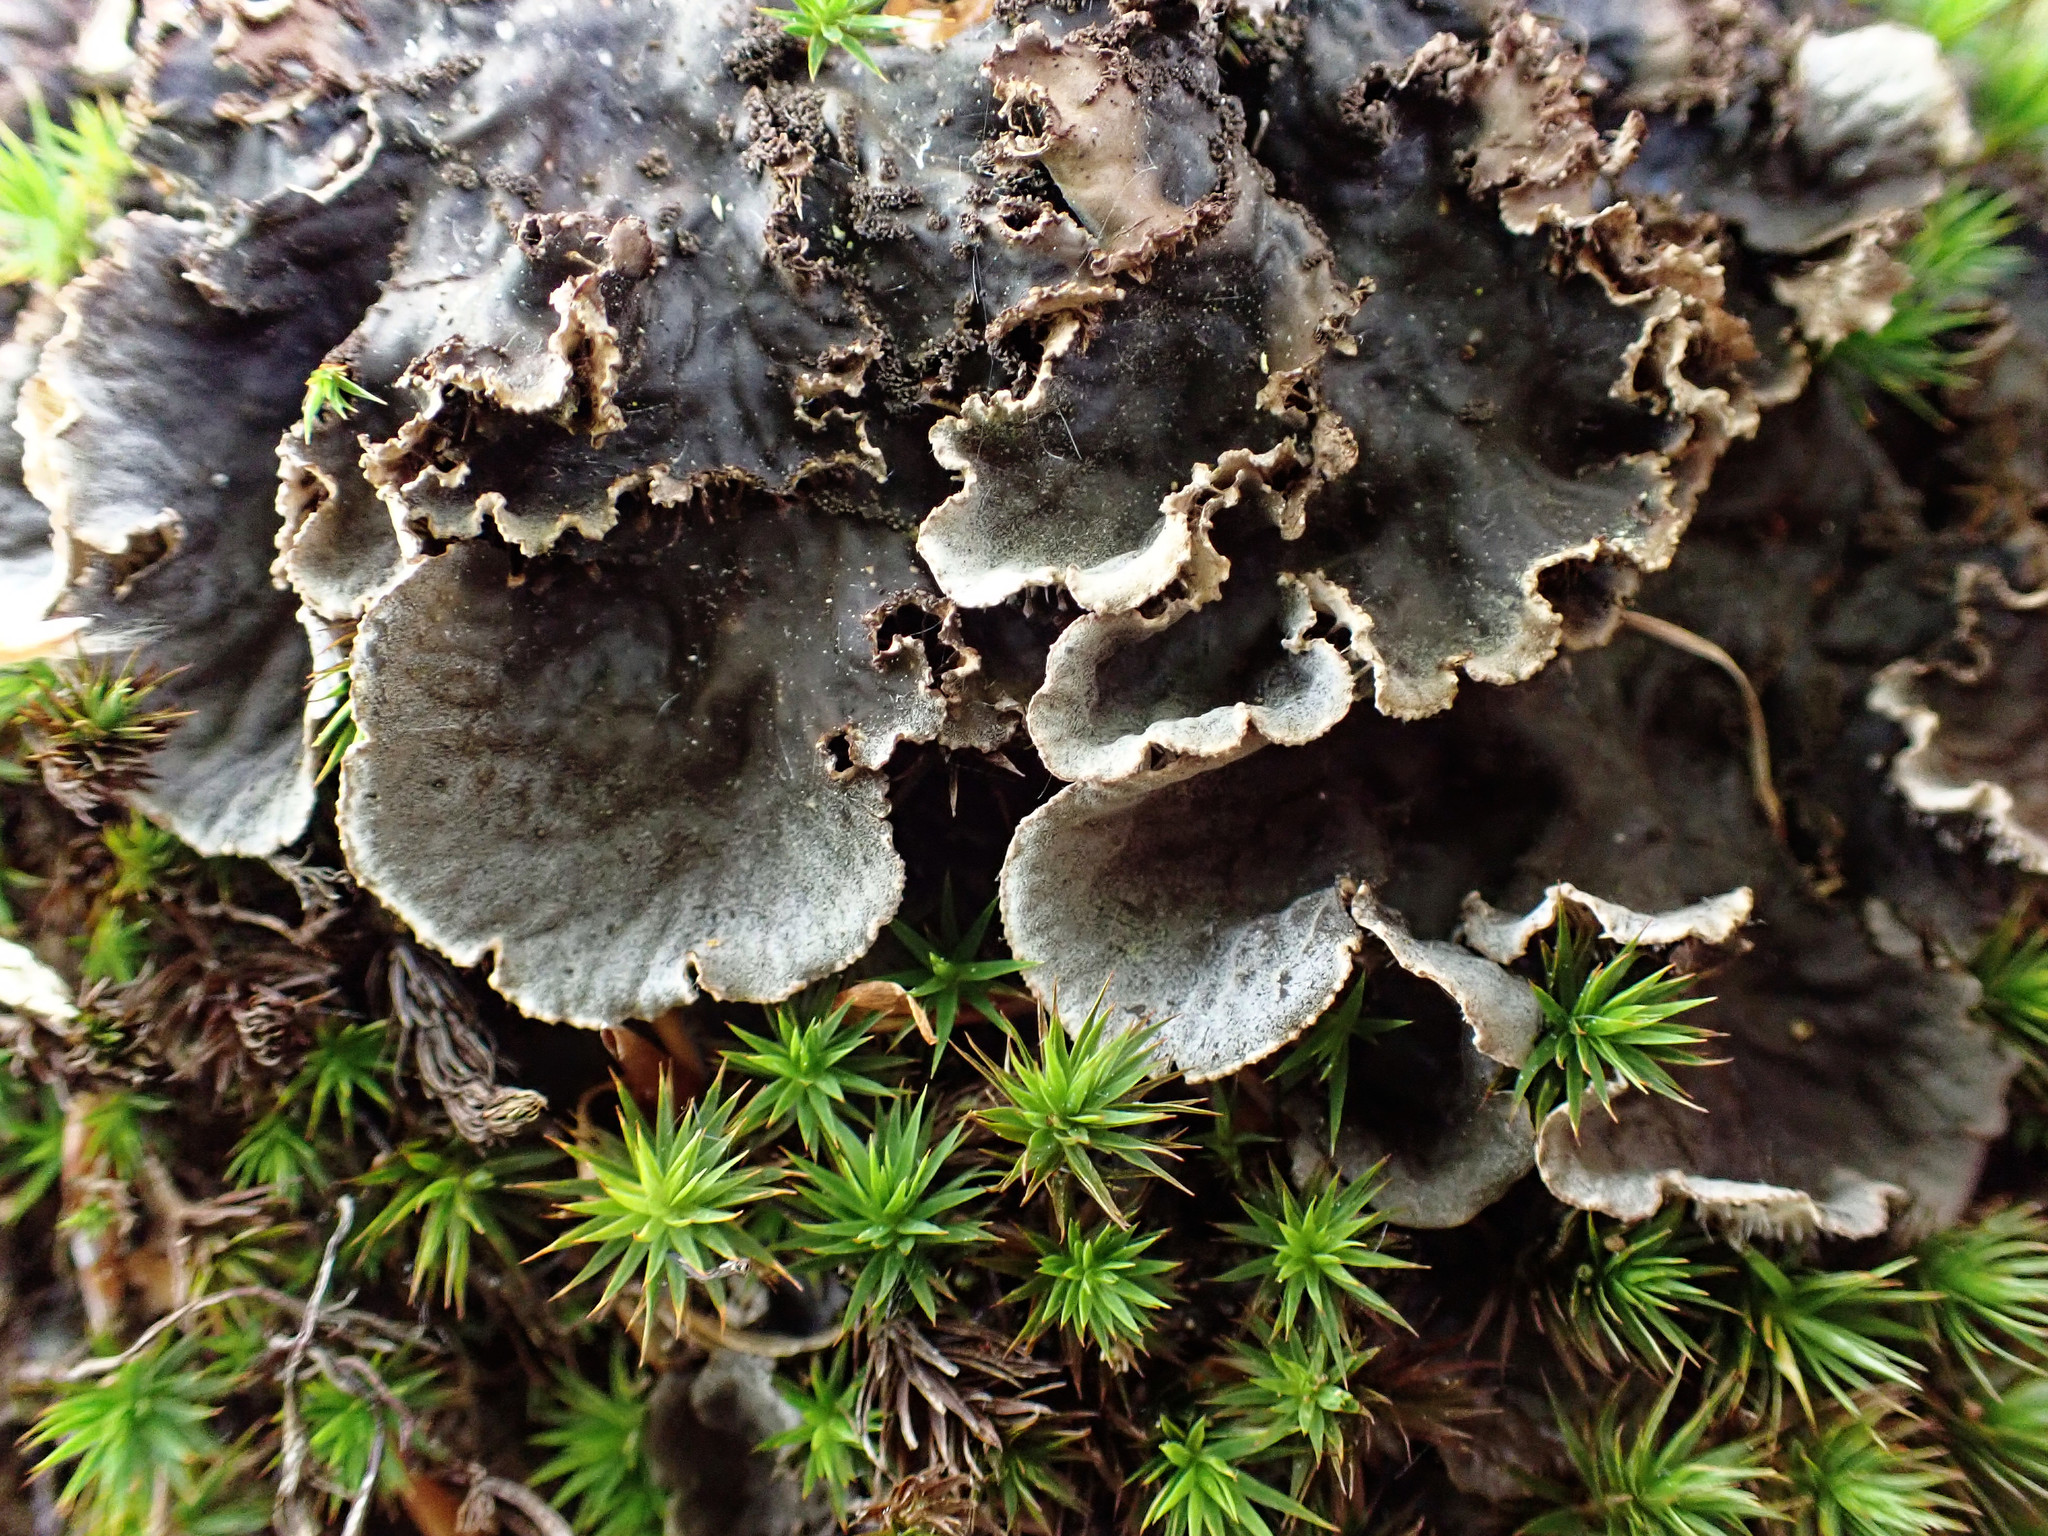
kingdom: Fungi
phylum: Ascomycota
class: Lecanoromycetes
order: Peltigerales
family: Peltigeraceae
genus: Peltigera
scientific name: Peltigera praetextata
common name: Scaly dog-lichen
